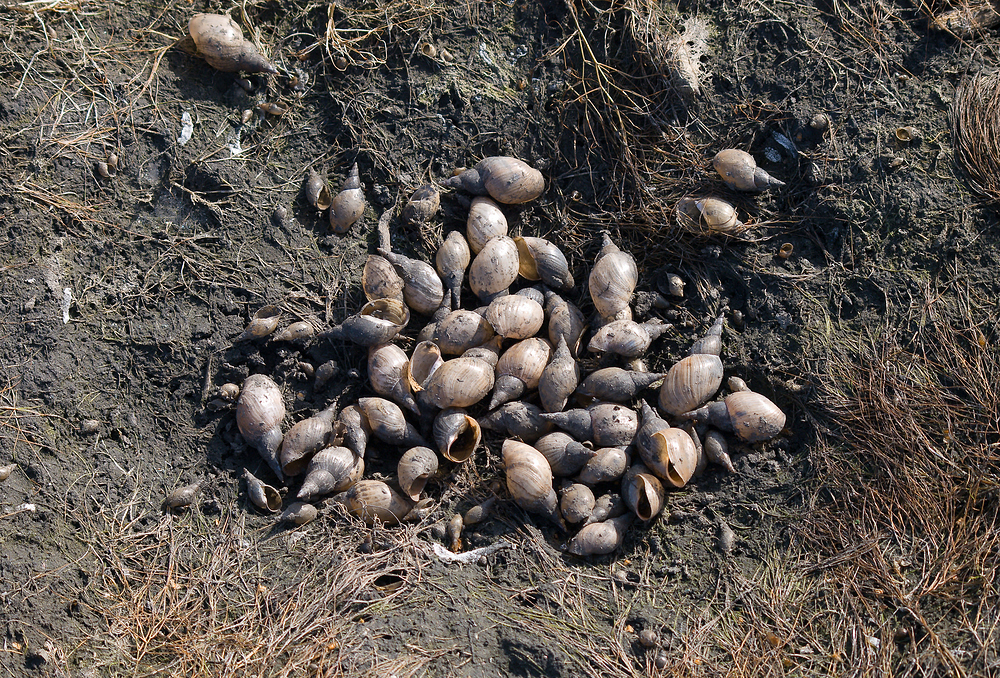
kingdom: Animalia
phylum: Mollusca
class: Gastropoda
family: Lymnaeidae
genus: Lymnaea
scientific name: Lymnaea stagnalis
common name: Great pond snail
